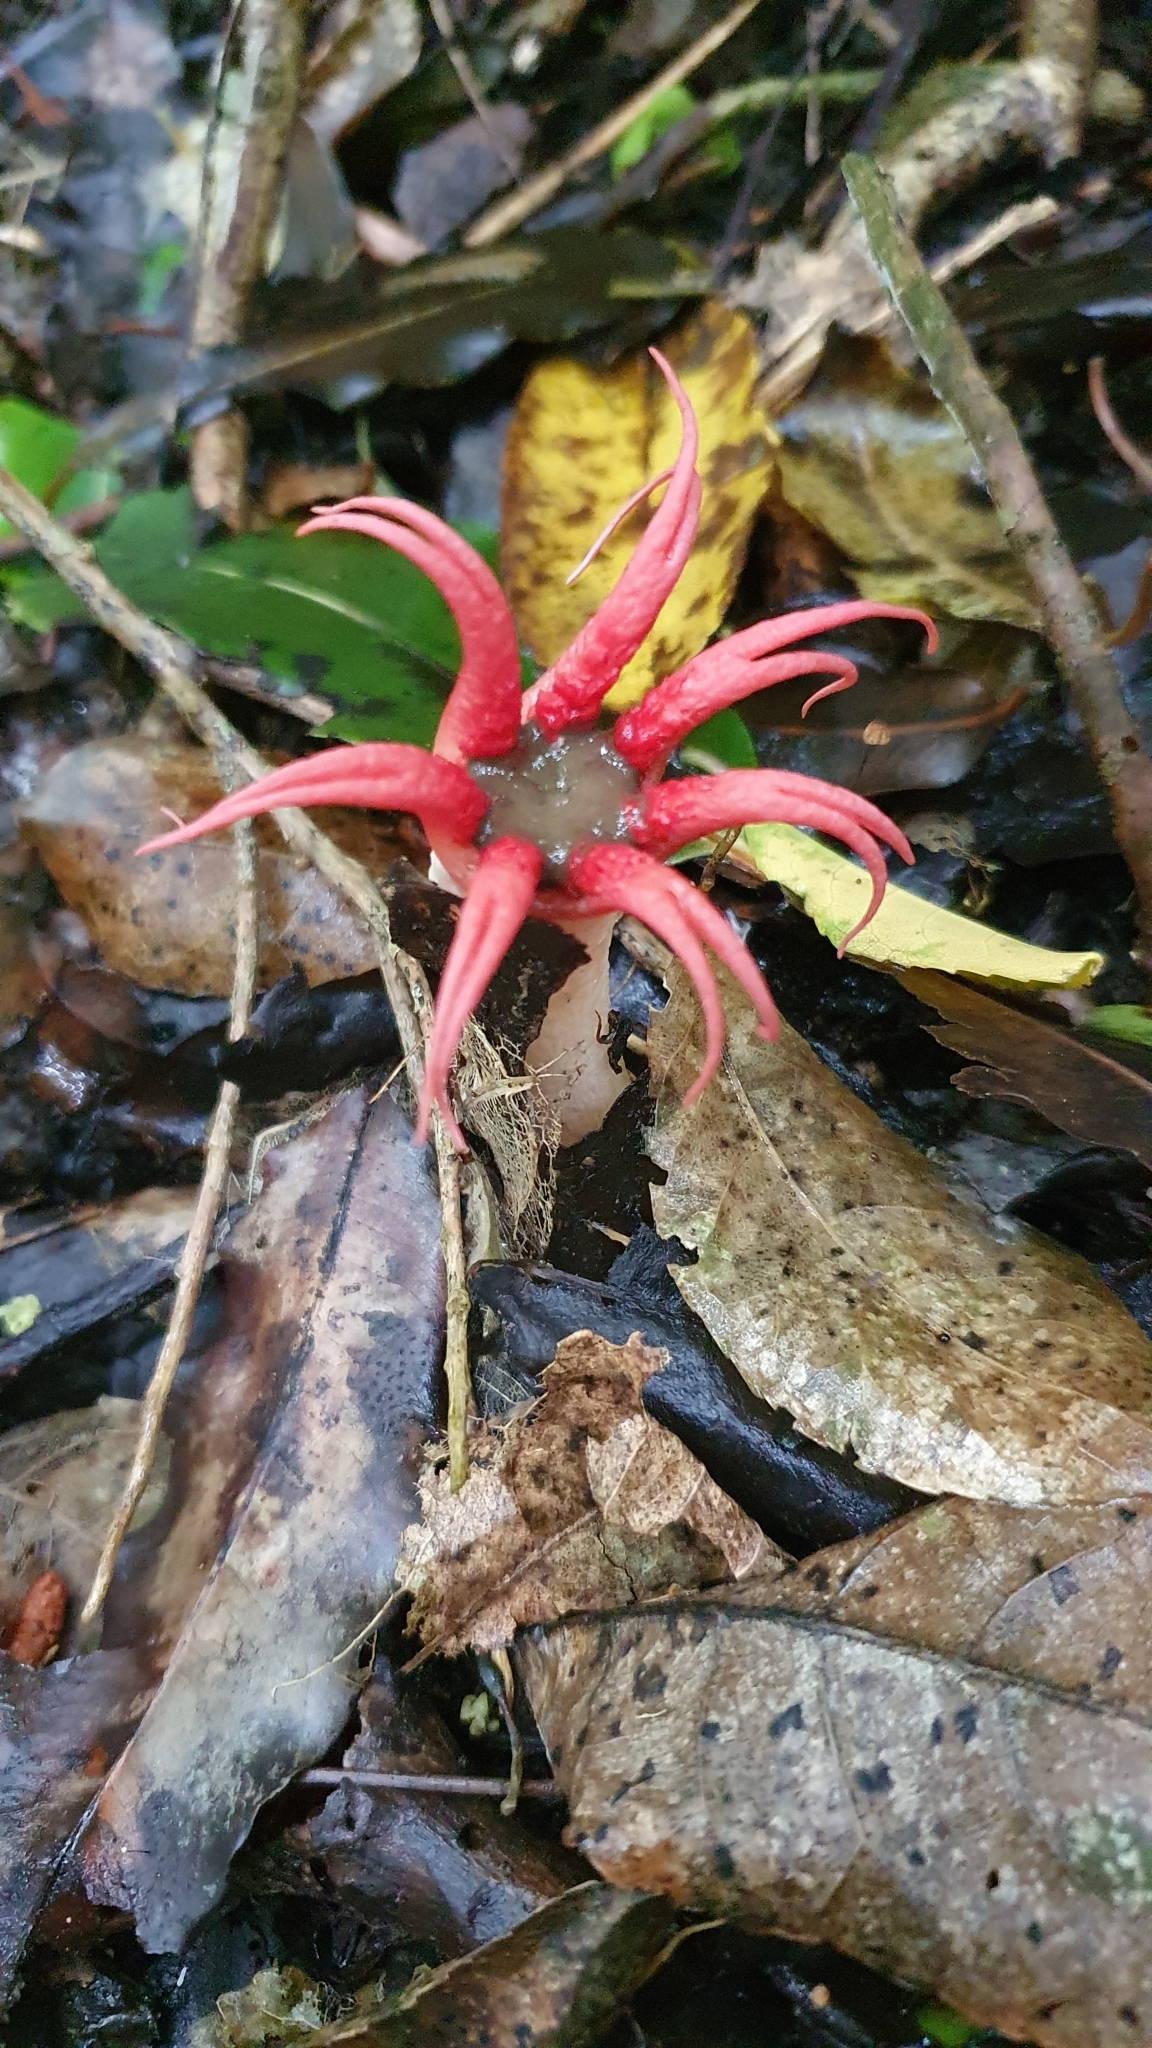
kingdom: Fungi
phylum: Basidiomycota
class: Agaricomycetes
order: Phallales
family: Phallaceae
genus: Aseroe
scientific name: Aseroe rubra
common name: Starfish fungus
